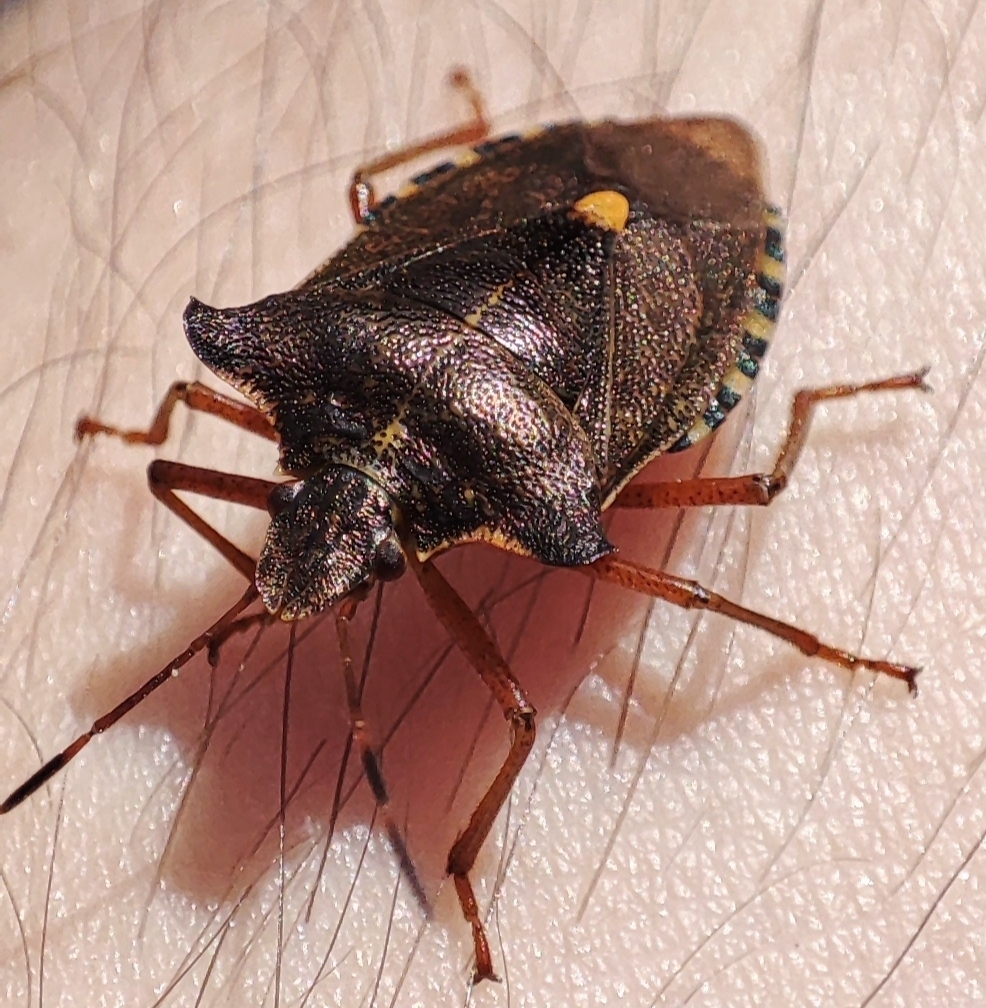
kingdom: Animalia
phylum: Arthropoda
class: Insecta
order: Hemiptera
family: Pentatomidae
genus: Pentatoma
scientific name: Pentatoma rufipes
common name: Forest bug
